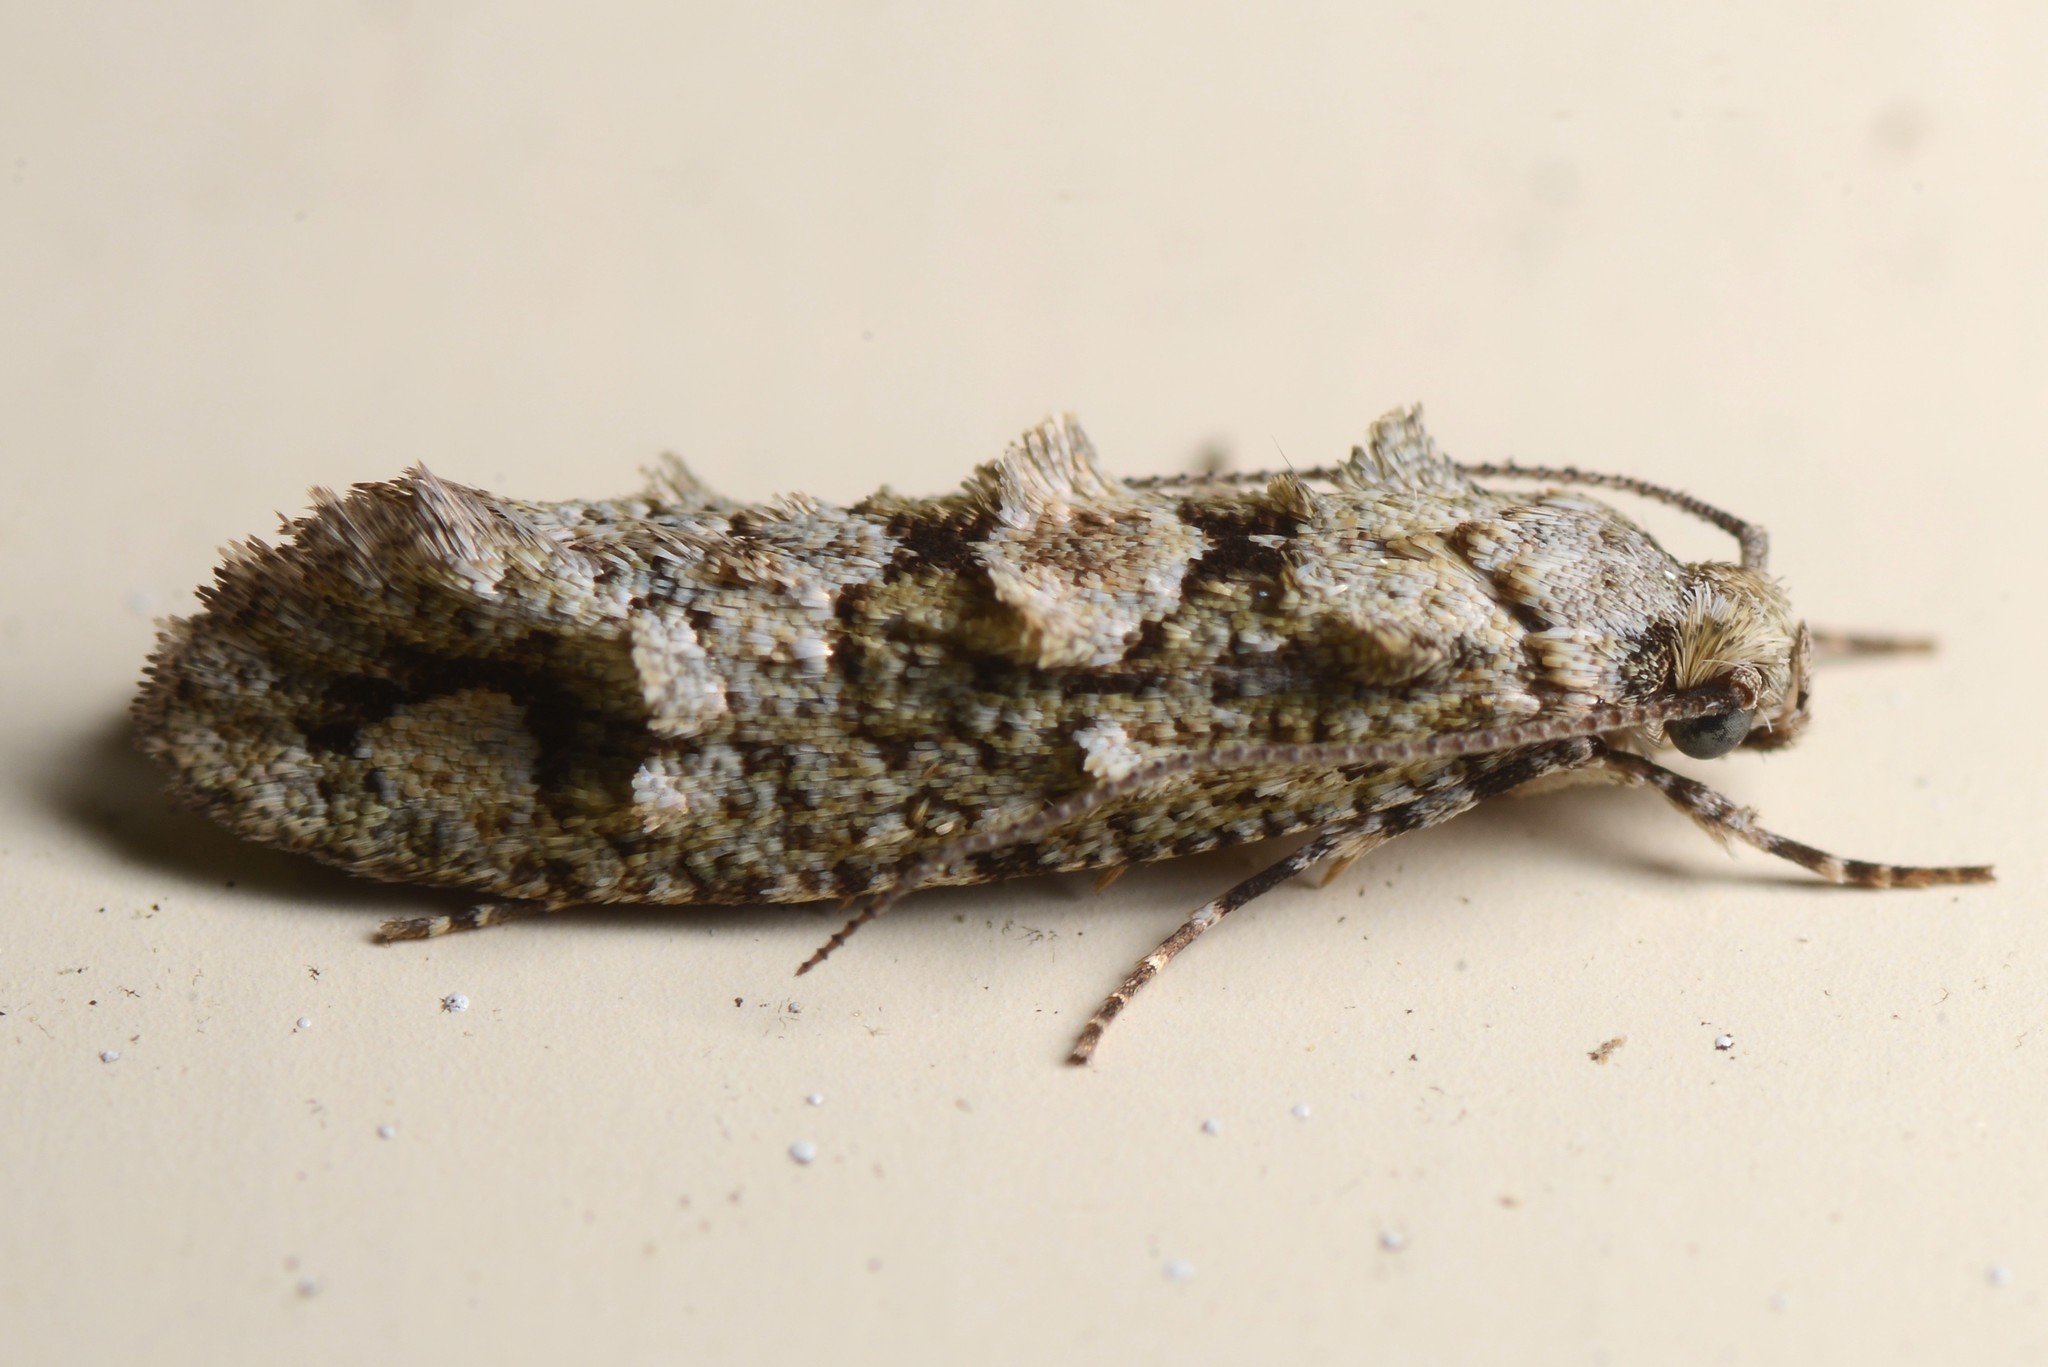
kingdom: Animalia
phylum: Arthropoda
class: Insecta
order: Lepidoptera
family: Tineidae
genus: Lysiphragma
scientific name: Lysiphragma howesii
